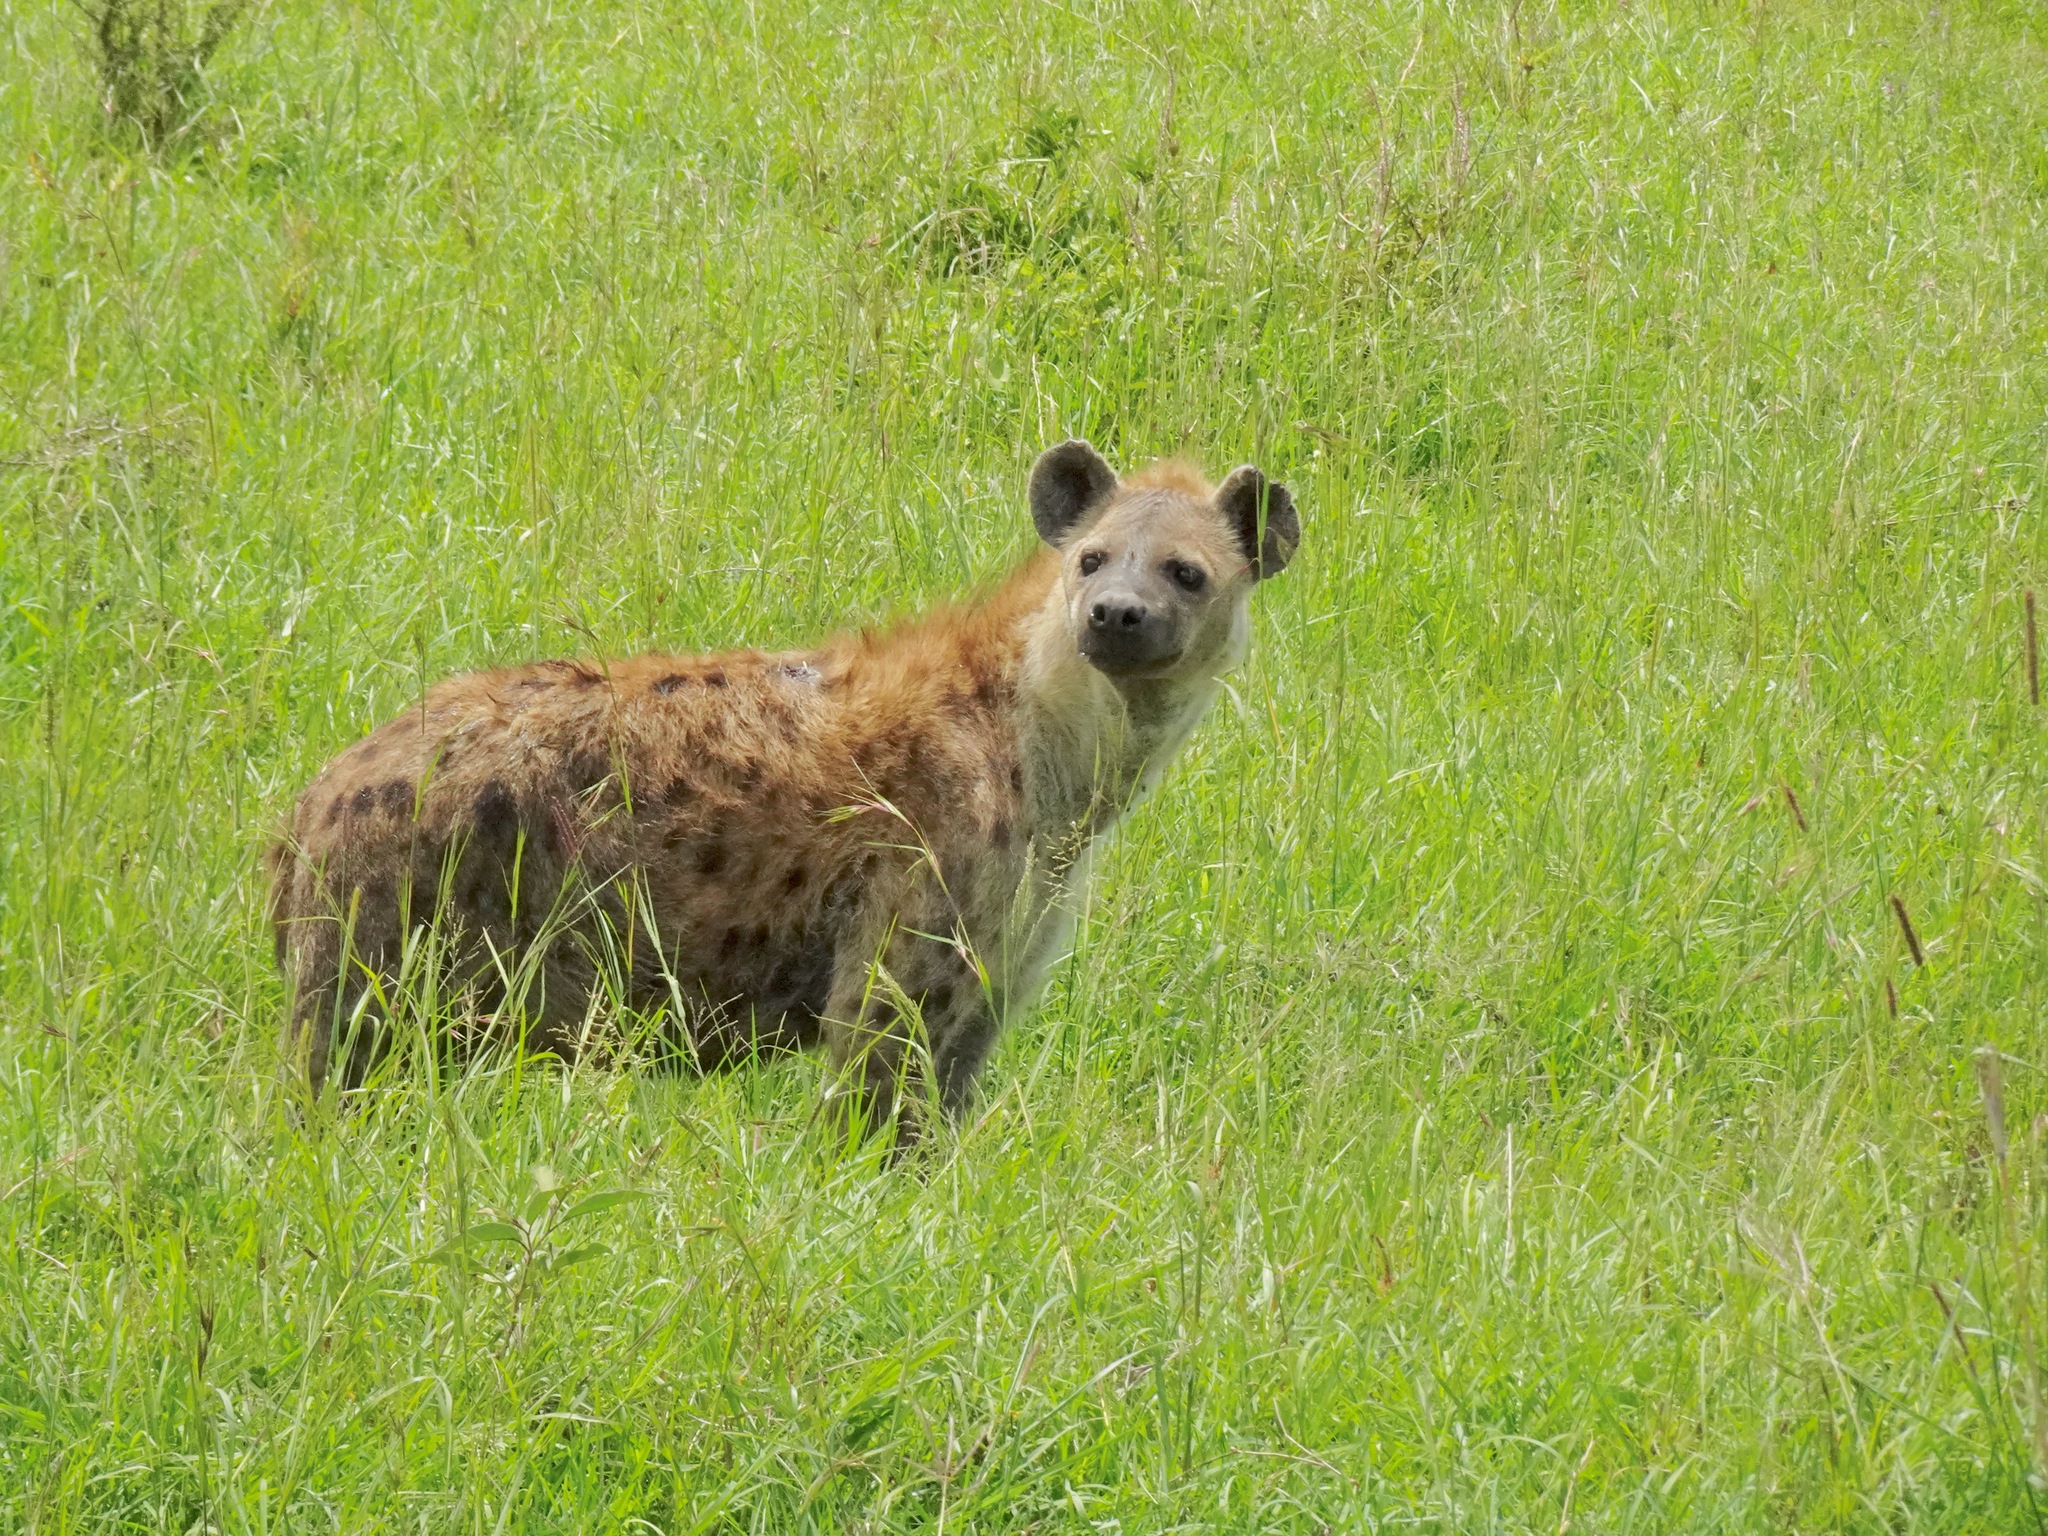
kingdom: Animalia
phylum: Chordata
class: Mammalia
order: Carnivora
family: Hyaenidae
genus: Crocuta
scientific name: Crocuta crocuta
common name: Spotted hyaena
